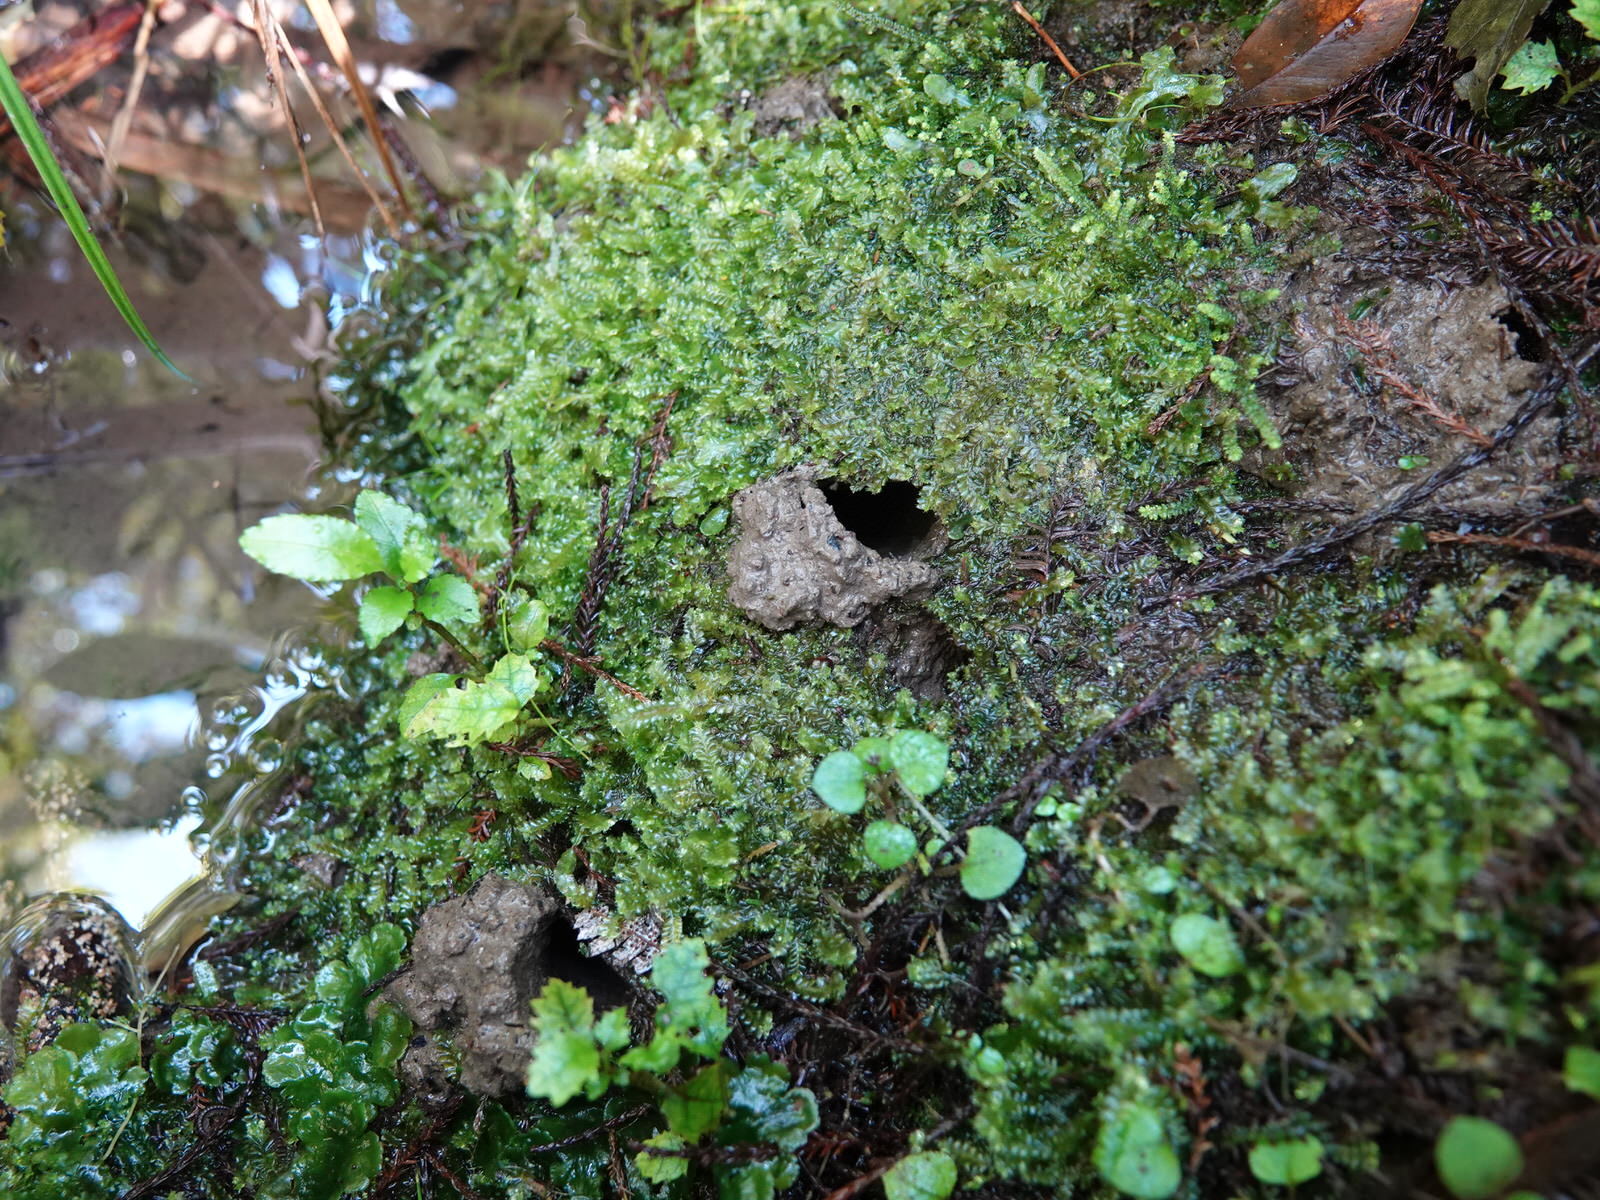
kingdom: Animalia
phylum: Arthropoda
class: Insecta
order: Odonata
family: Petaluridae
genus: Uropetala
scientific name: Uropetala carovei
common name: Bush giant dragonfly
